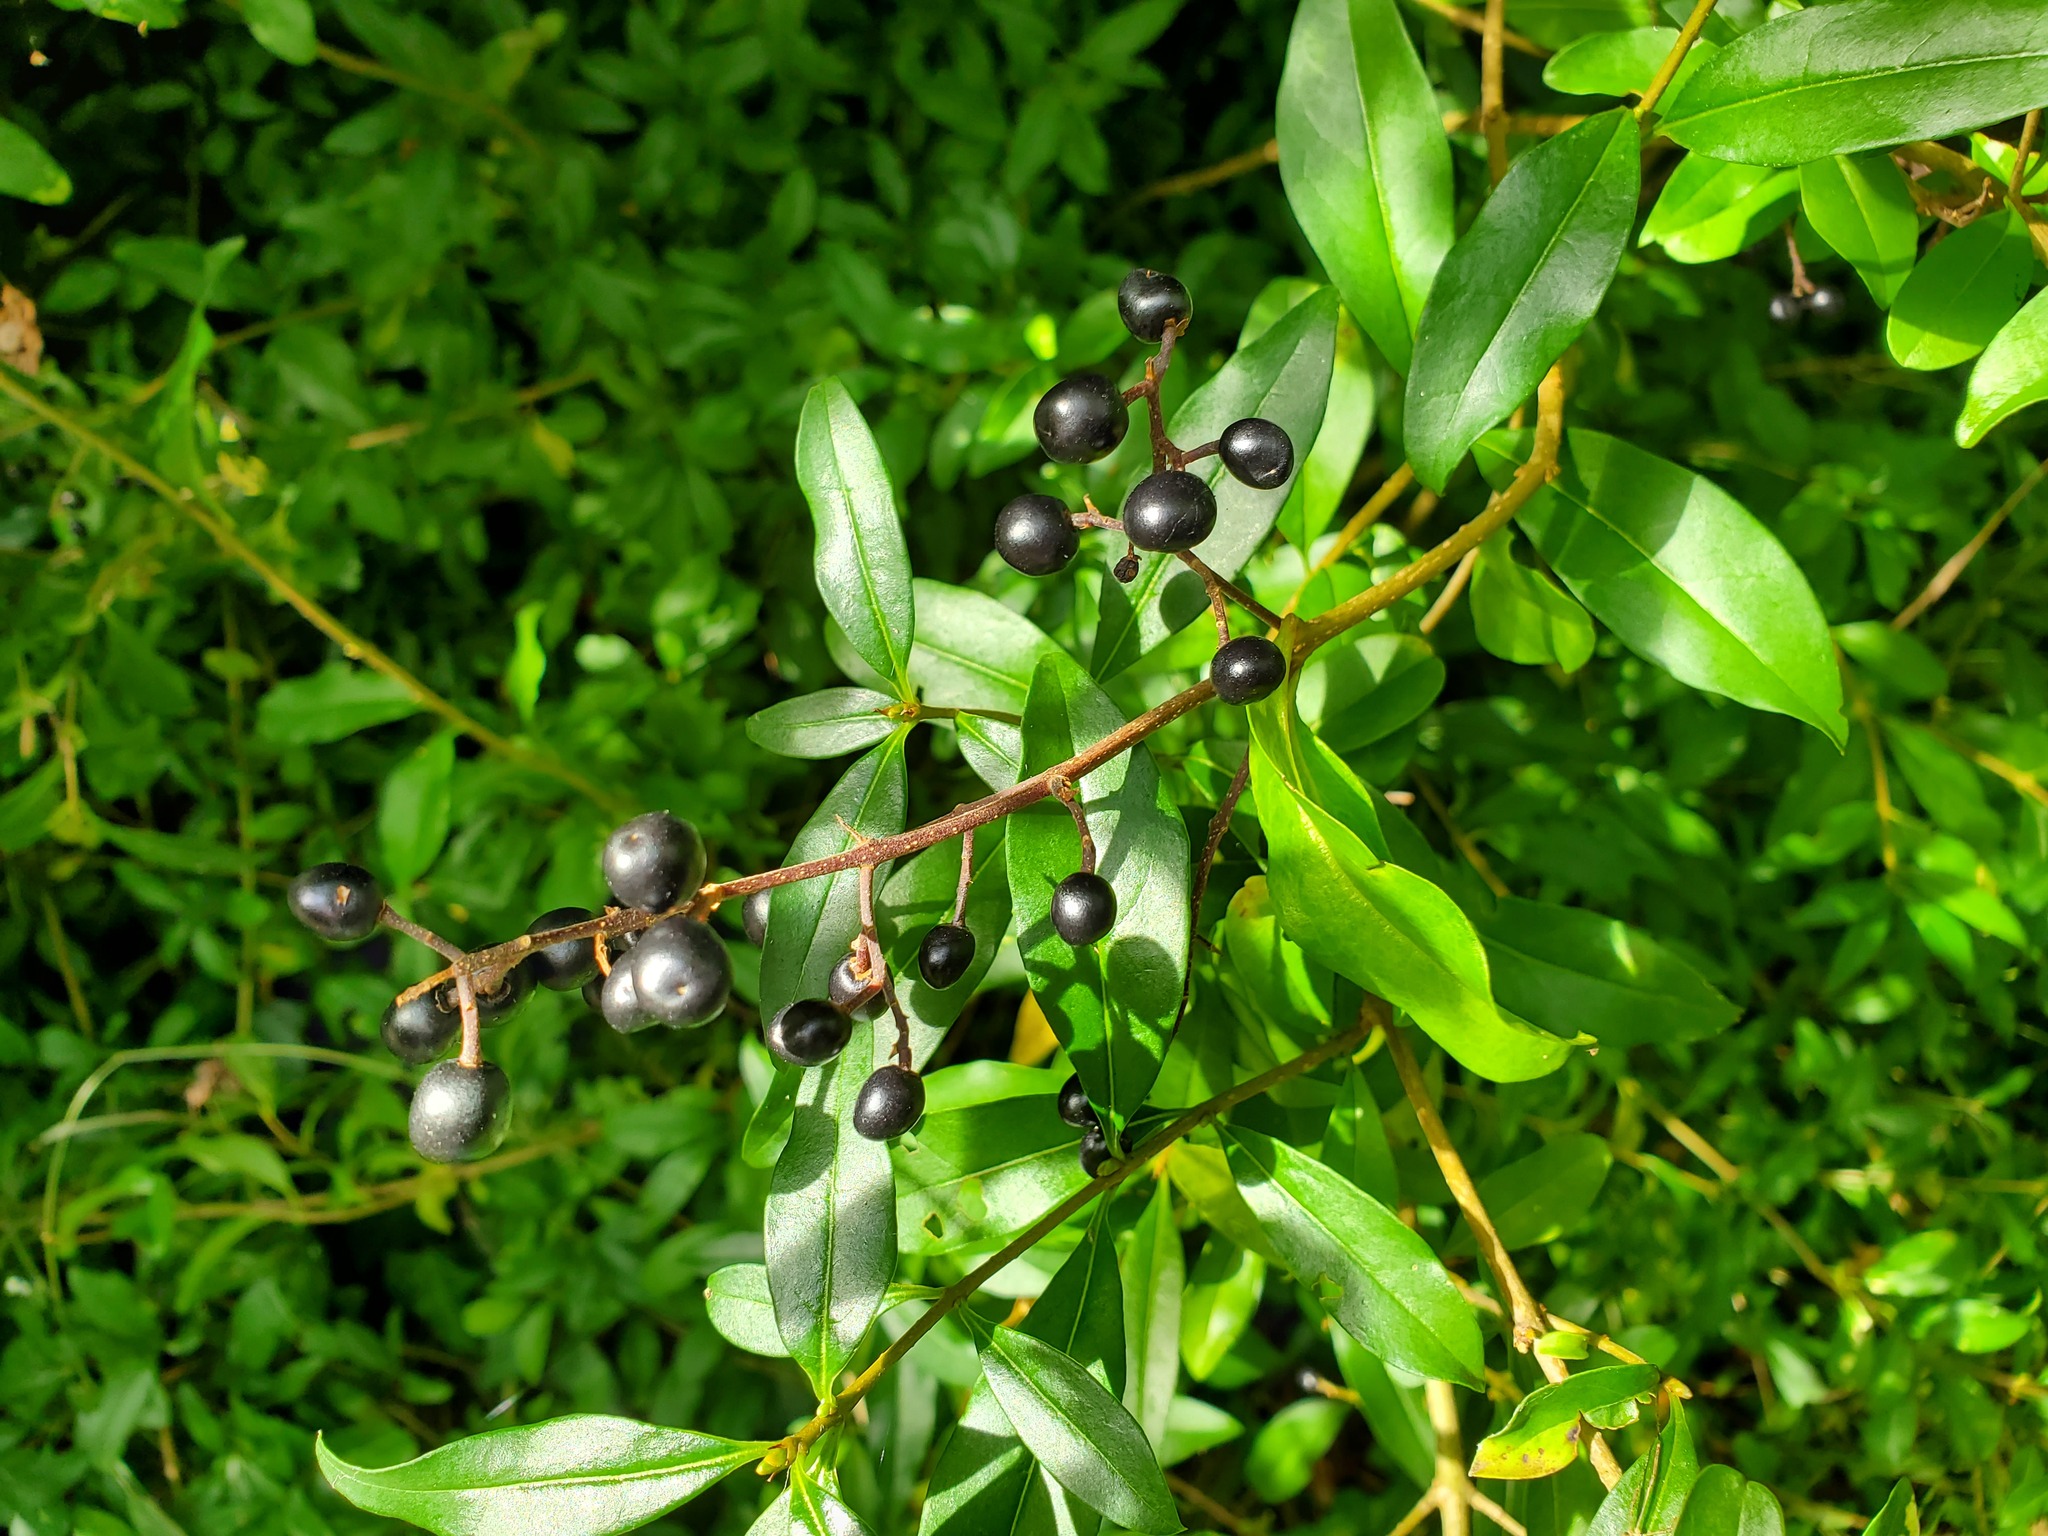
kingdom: Plantae
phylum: Tracheophyta
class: Magnoliopsida
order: Lamiales
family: Oleaceae
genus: Ligustrum
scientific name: Ligustrum vulgare
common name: Wild privet
